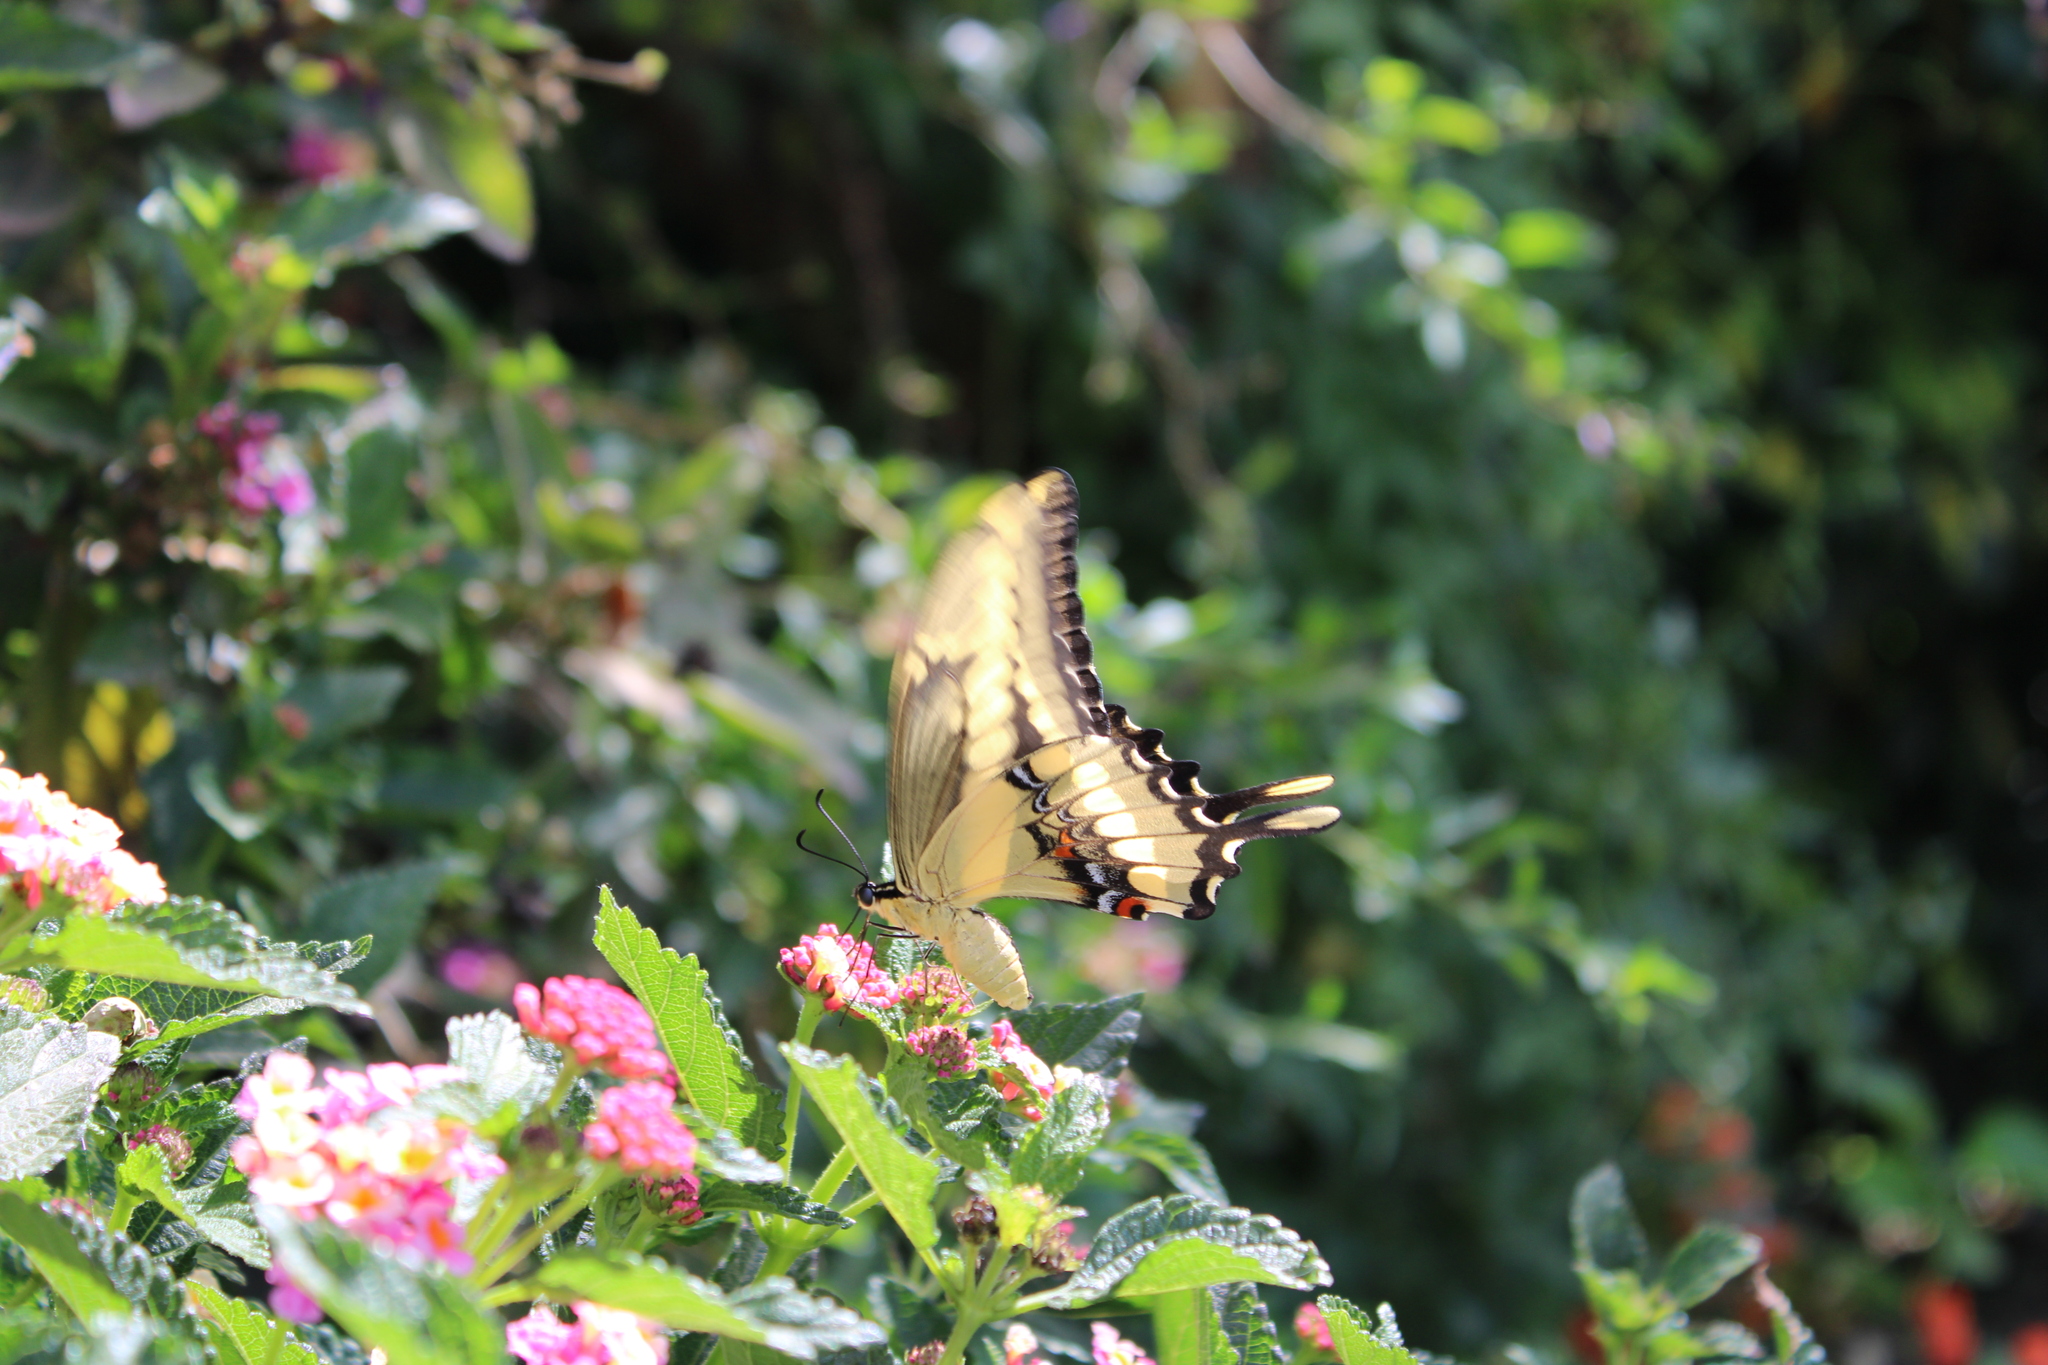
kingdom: Animalia
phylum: Arthropoda
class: Insecta
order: Lepidoptera
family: Papilionidae
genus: Papilio
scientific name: Papilio thoas
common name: King swallowtail
